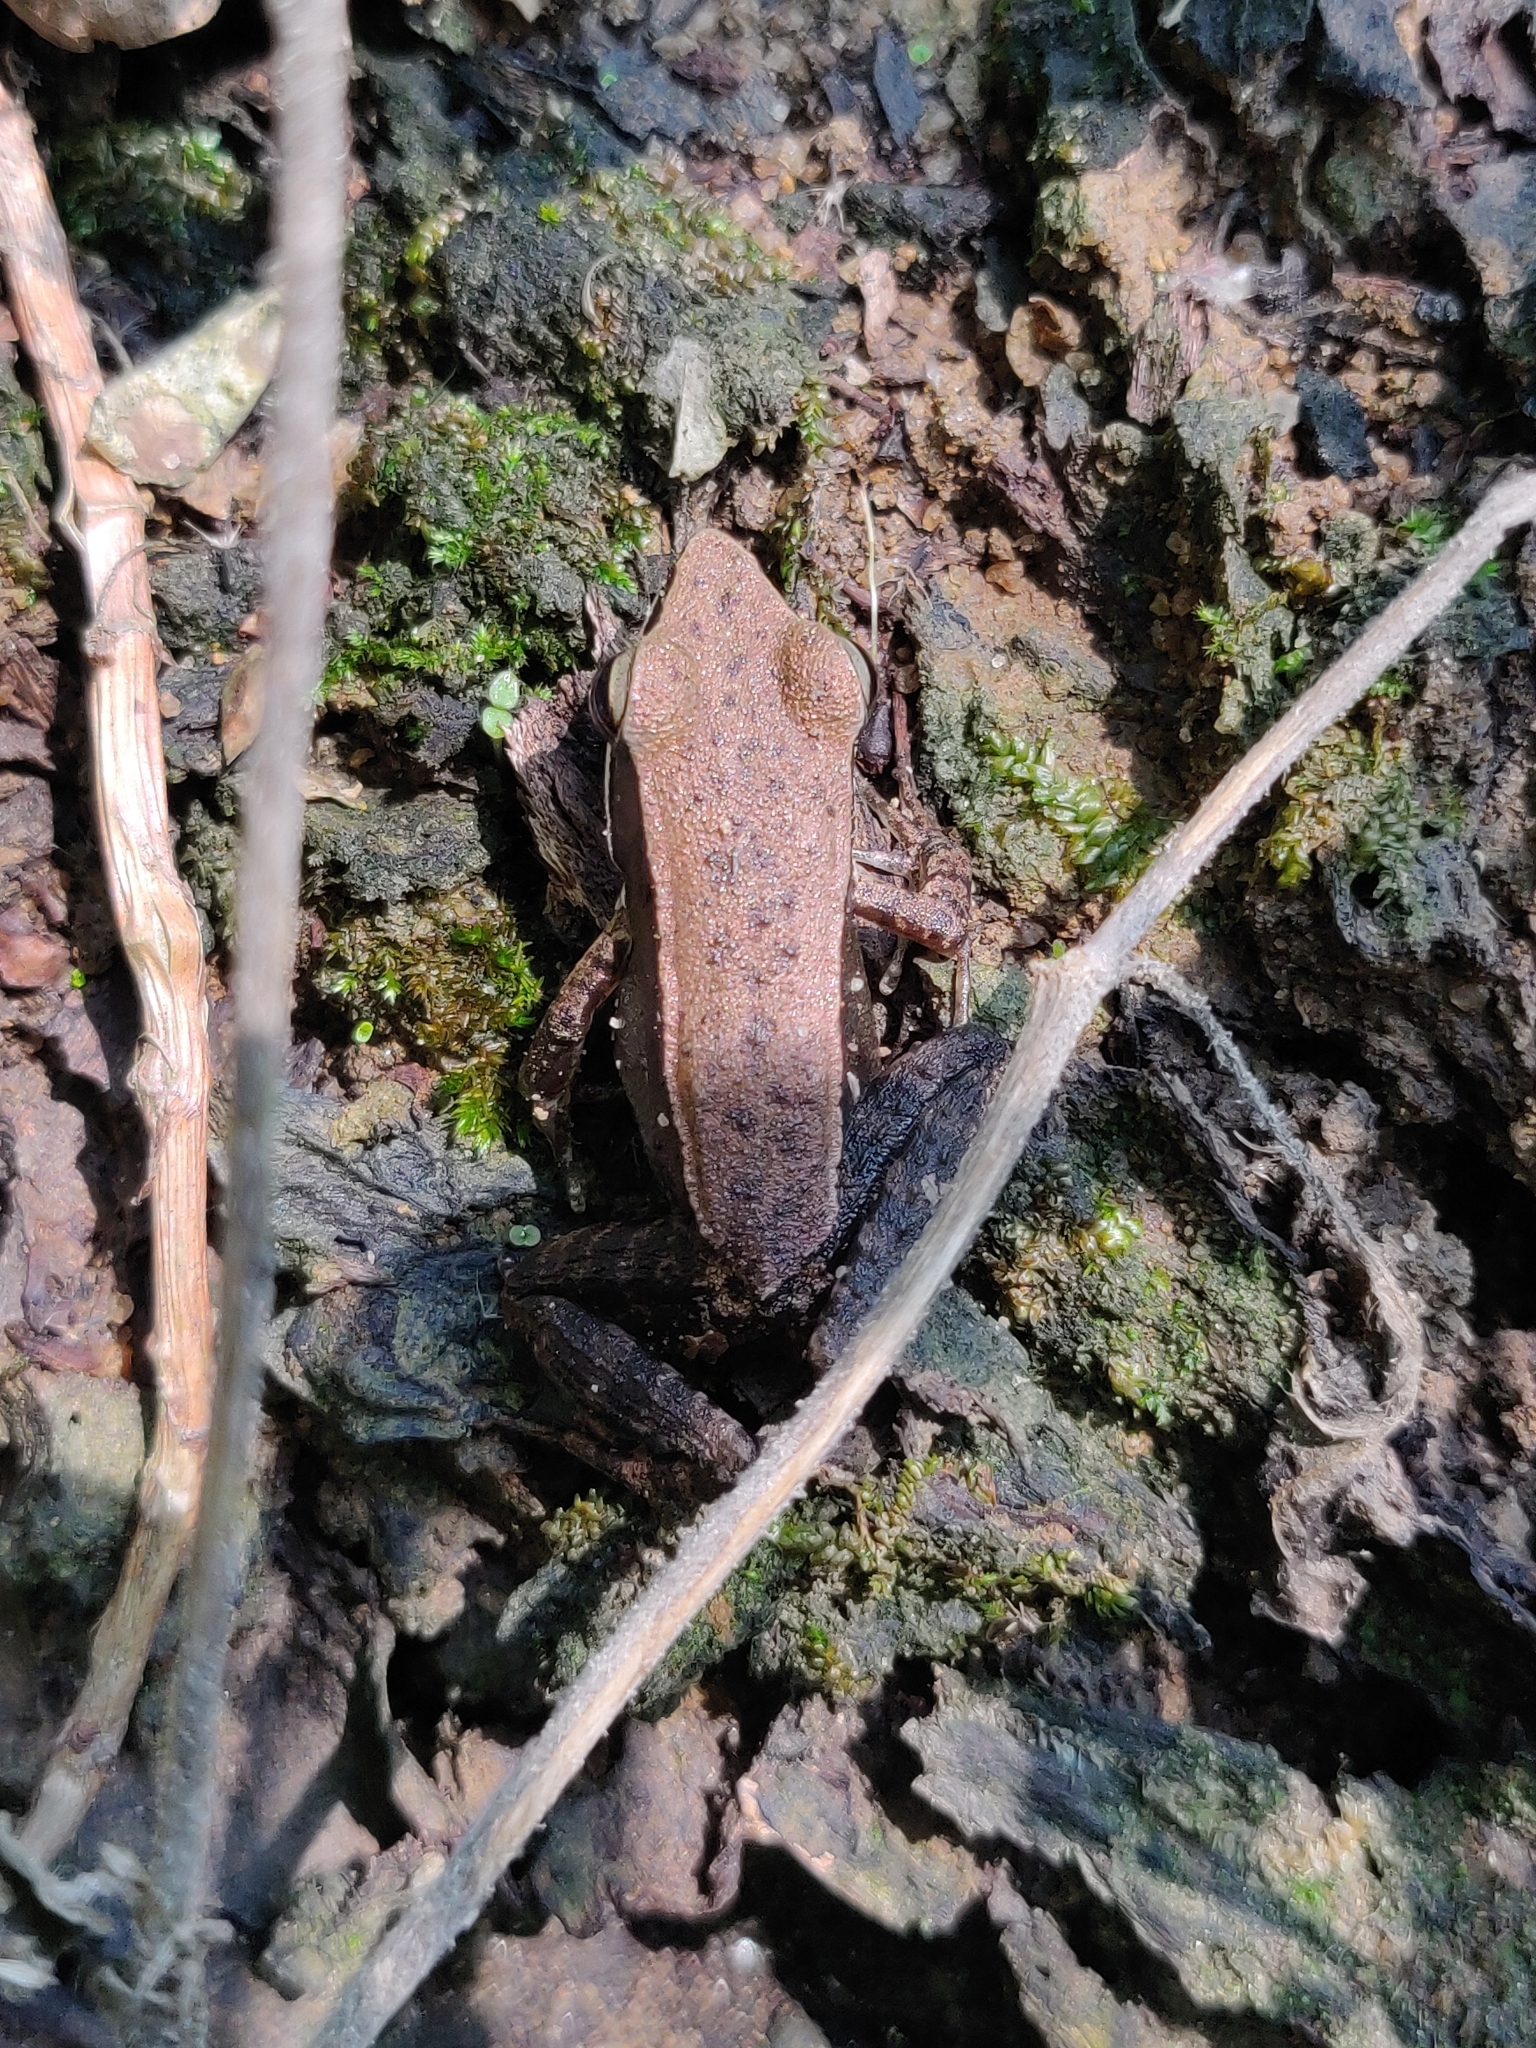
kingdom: Animalia
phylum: Chordata
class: Amphibia
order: Anura
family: Ranidae
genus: Indosylvirana
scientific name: Indosylvirana doni
